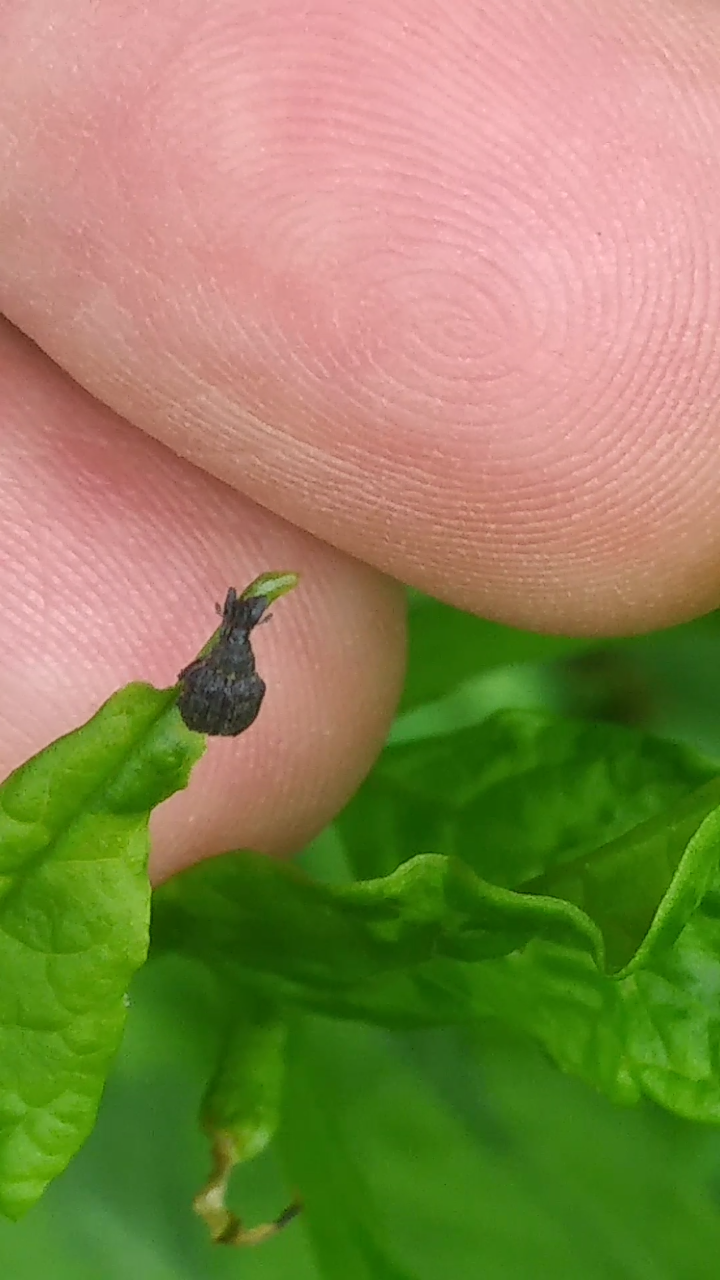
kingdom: Animalia
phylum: Arthropoda
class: Insecta
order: Coleoptera
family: Curculionidae
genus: Odontopus
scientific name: Odontopus calceatus
